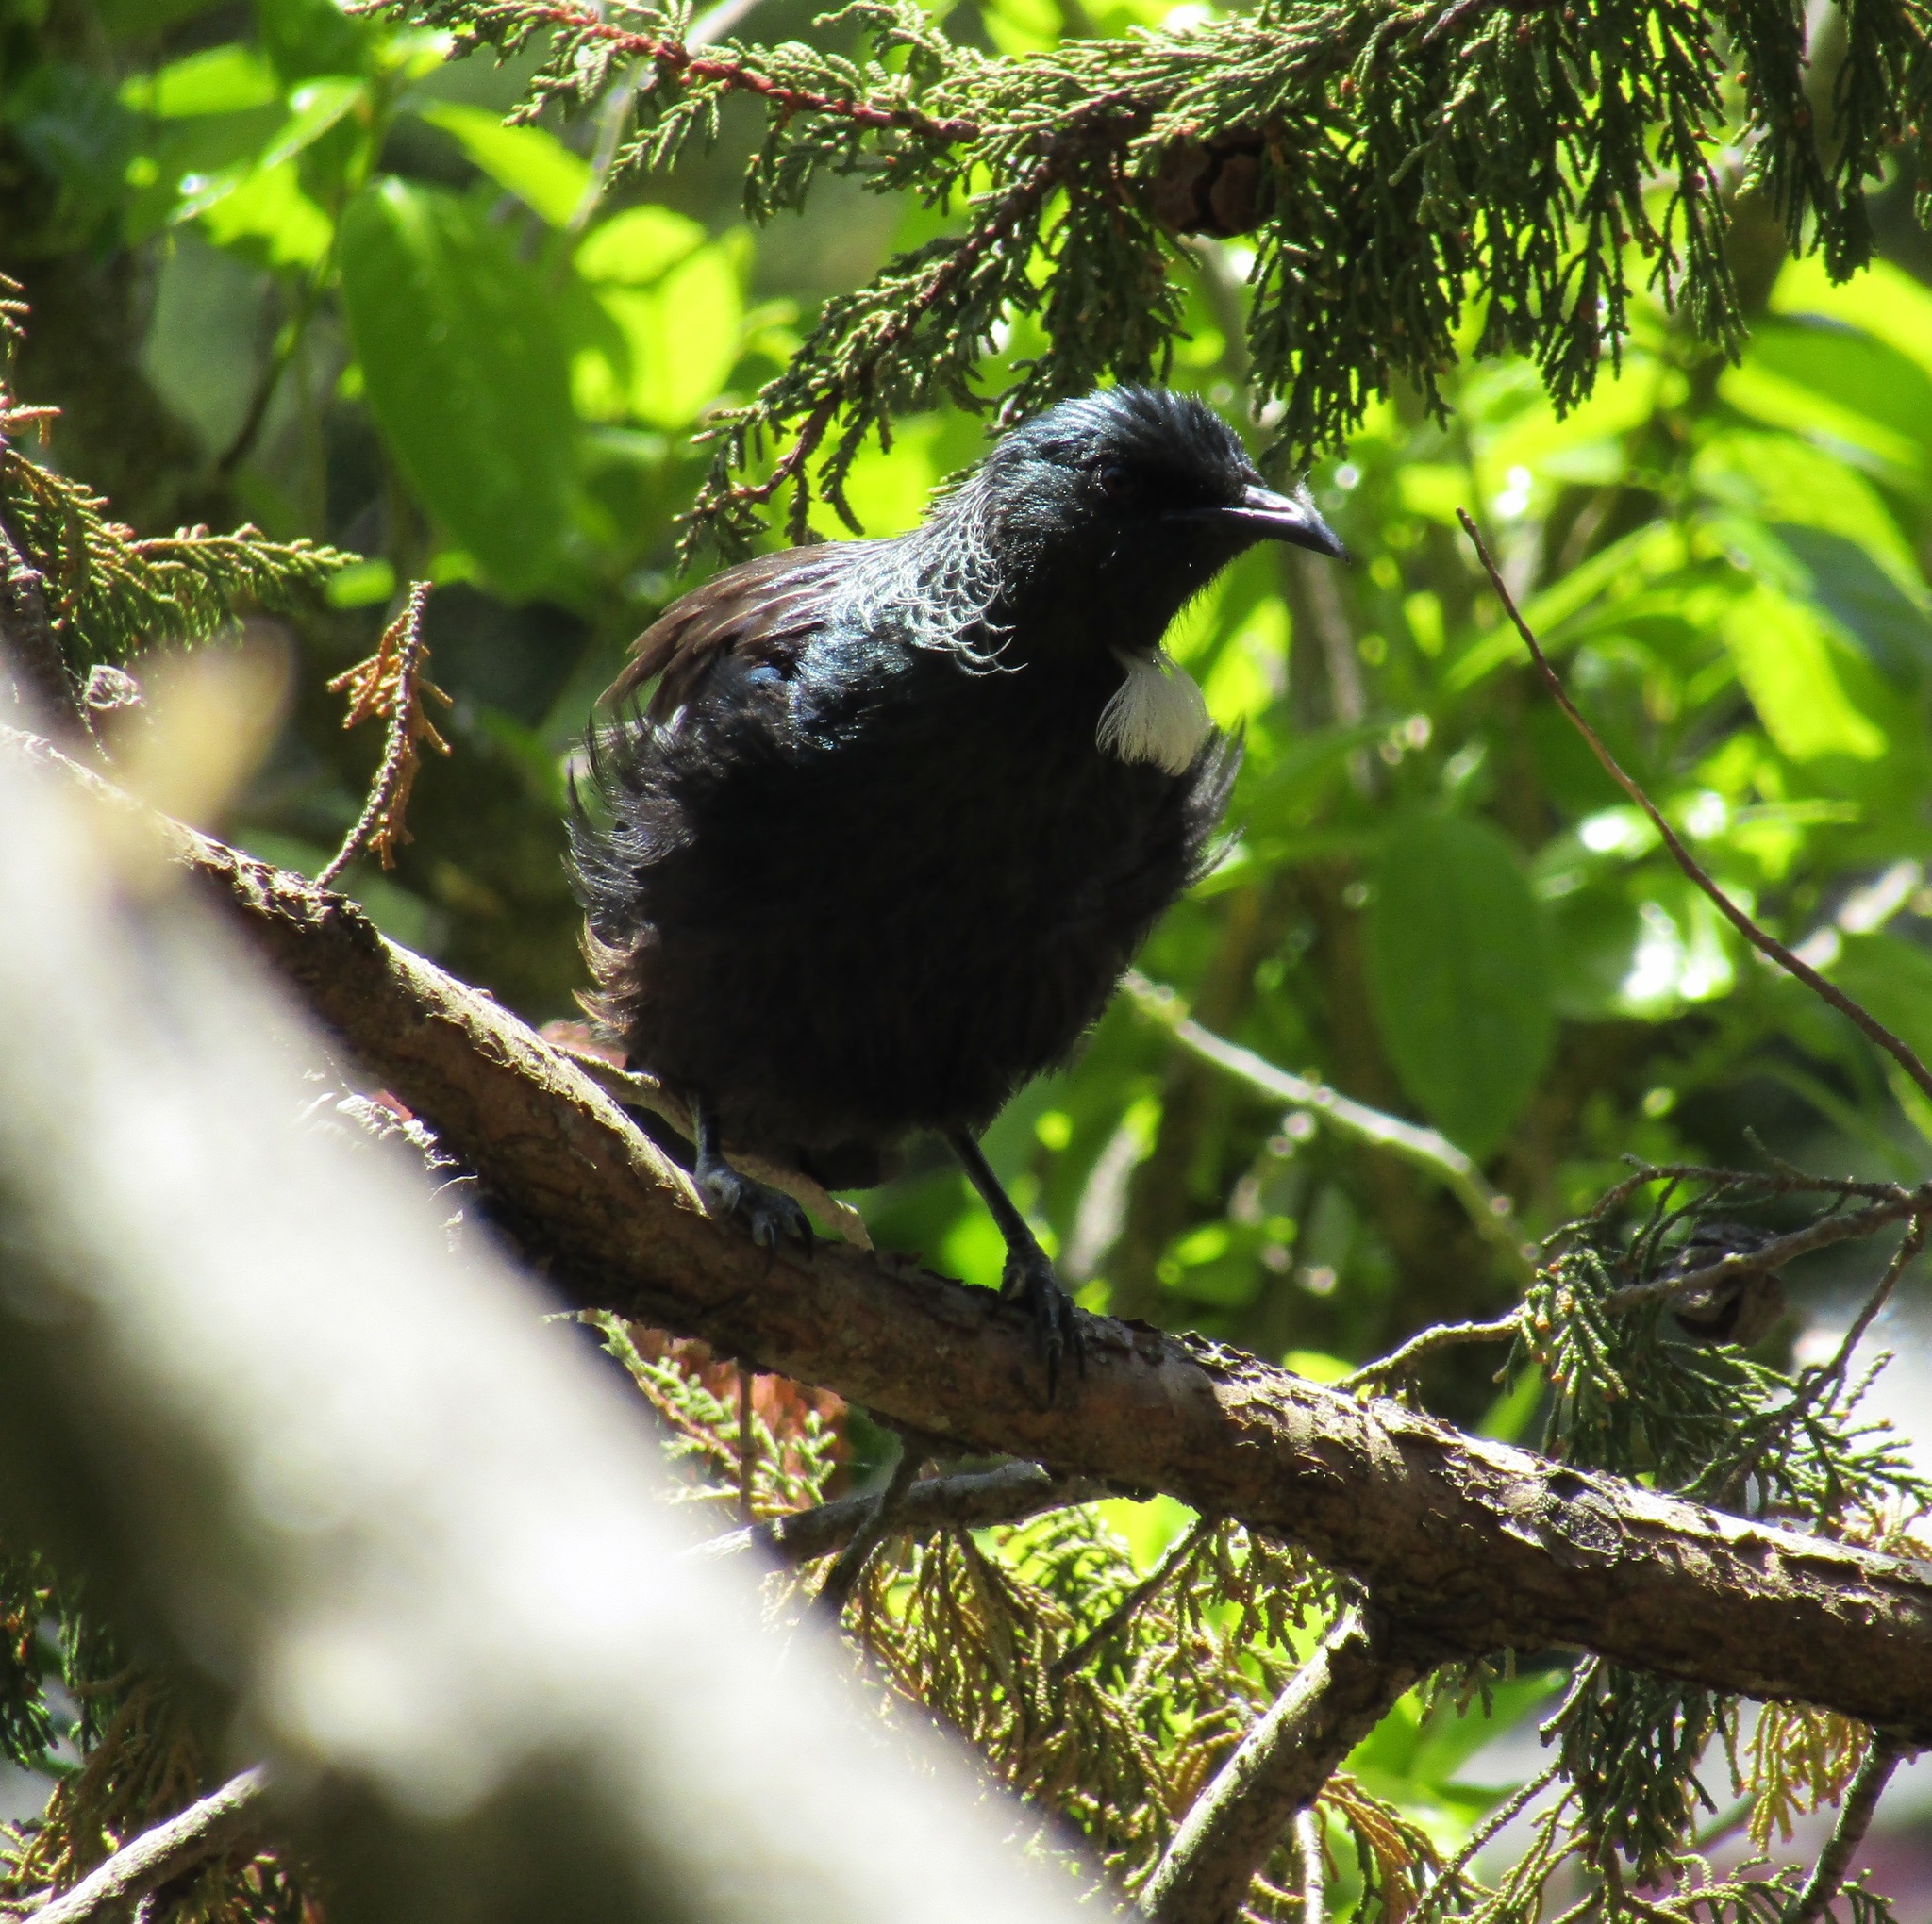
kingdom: Animalia
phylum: Chordata
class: Aves
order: Passeriformes
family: Meliphagidae
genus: Prosthemadera
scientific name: Prosthemadera novaeseelandiae
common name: Tui
